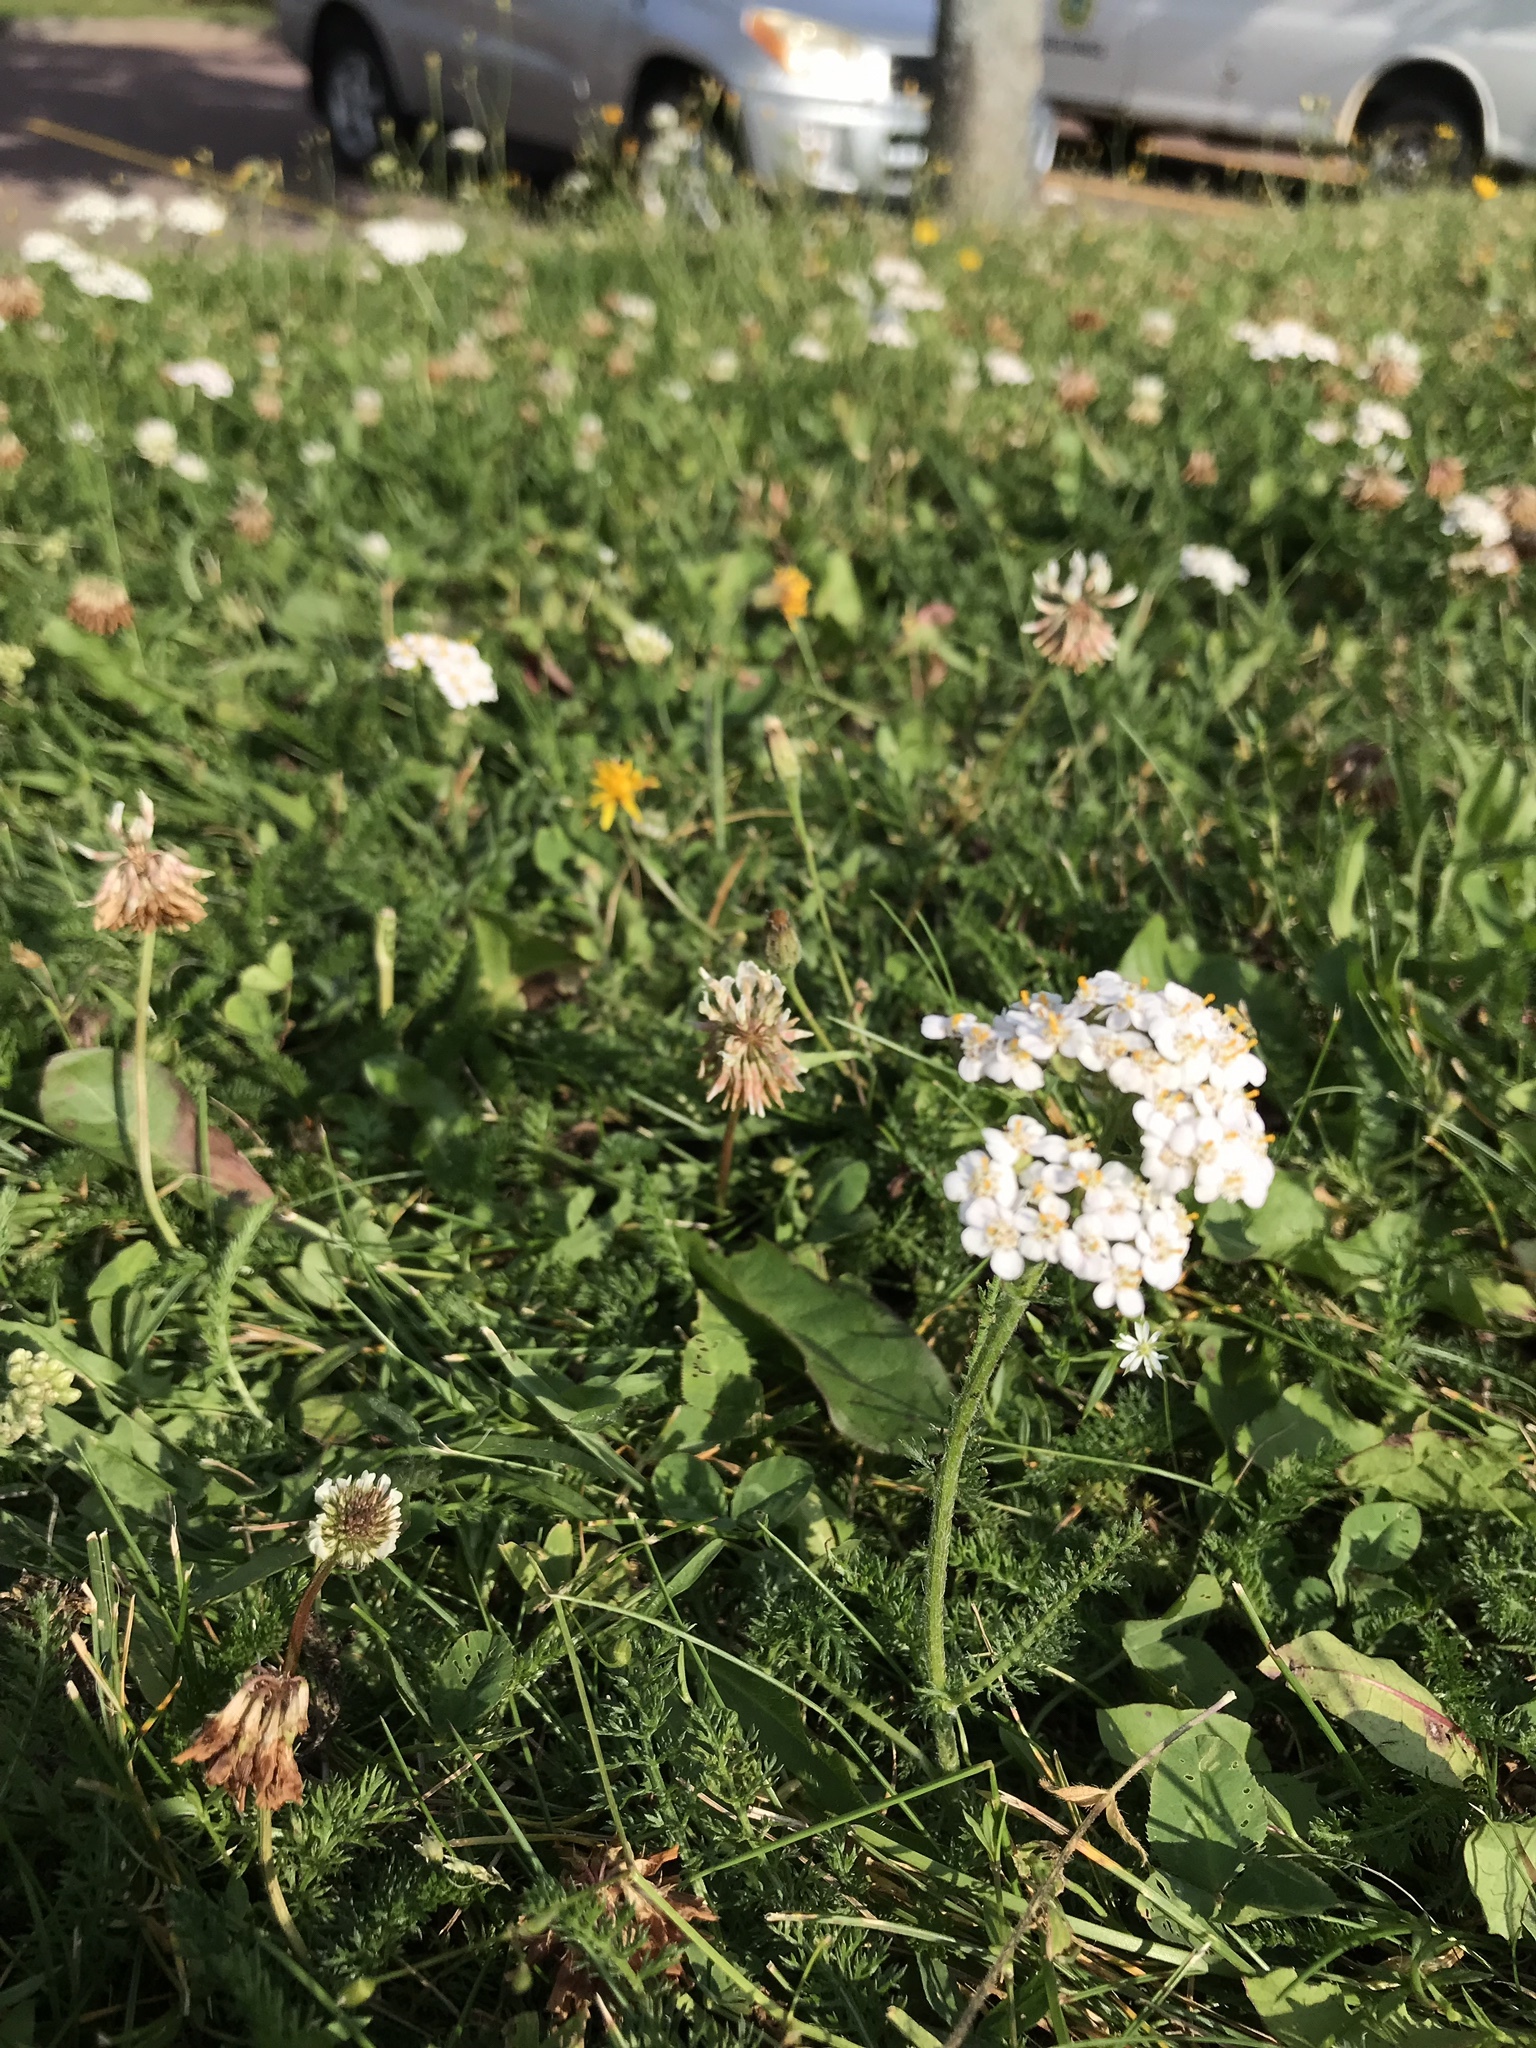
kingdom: Plantae
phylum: Tracheophyta
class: Magnoliopsida
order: Asterales
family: Asteraceae
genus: Achillea
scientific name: Achillea millefolium
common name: Yarrow
